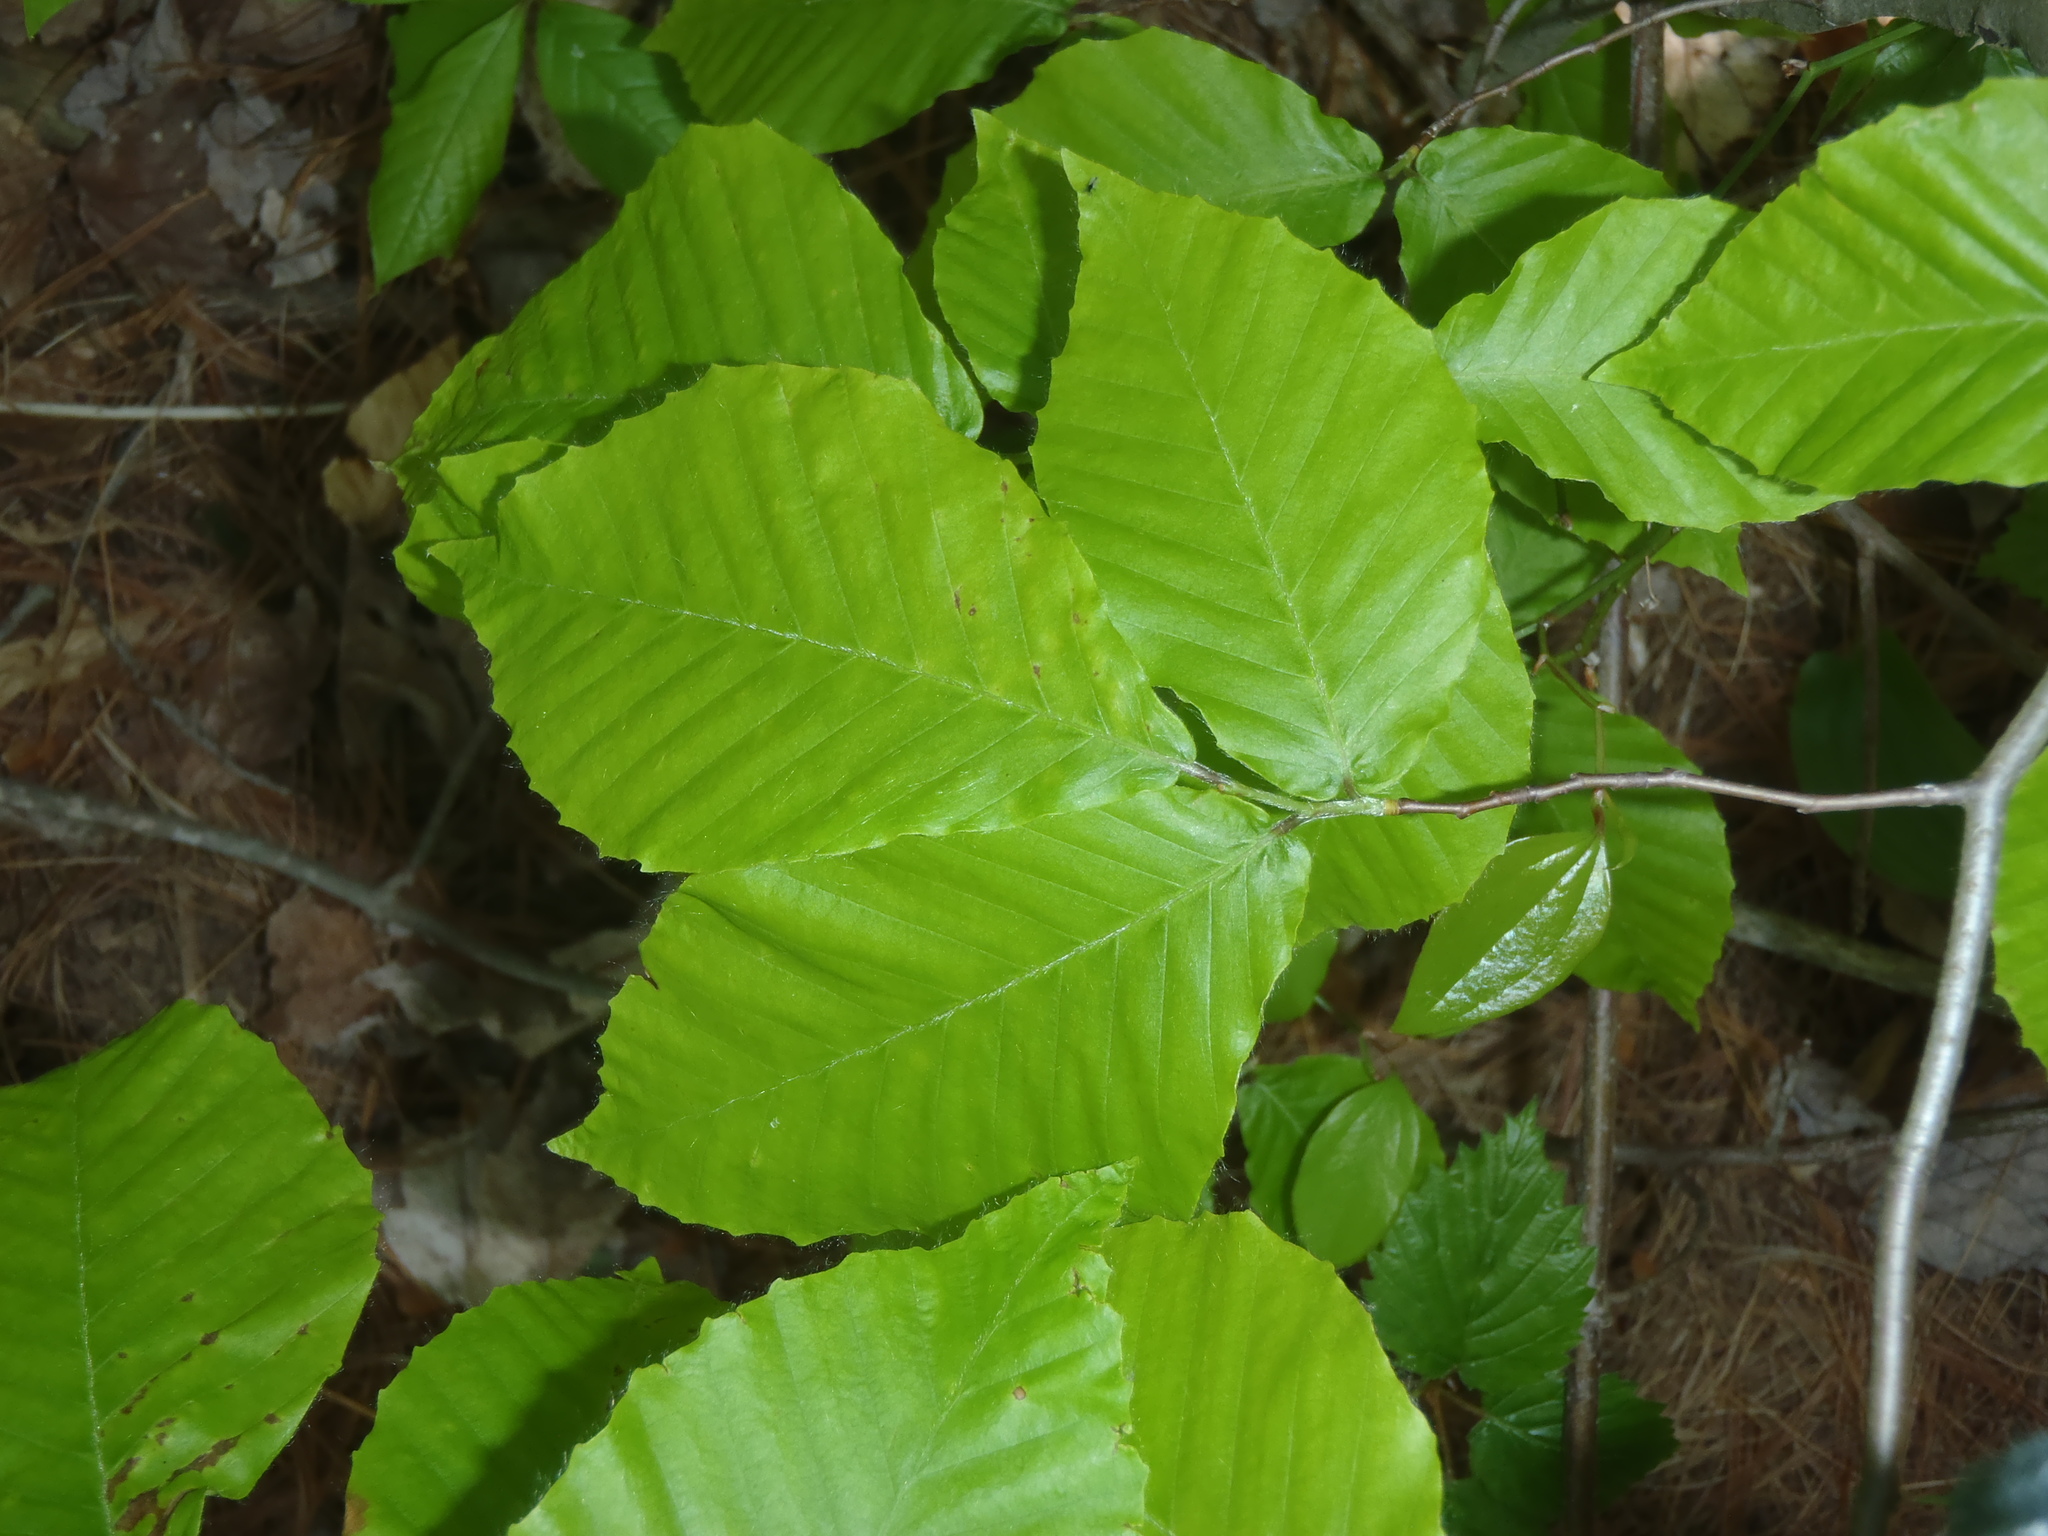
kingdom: Plantae
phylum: Tracheophyta
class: Magnoliopsida
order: Fagales
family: Fagaceae
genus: Fagus
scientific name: Fagus grandifolia
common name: American beech
